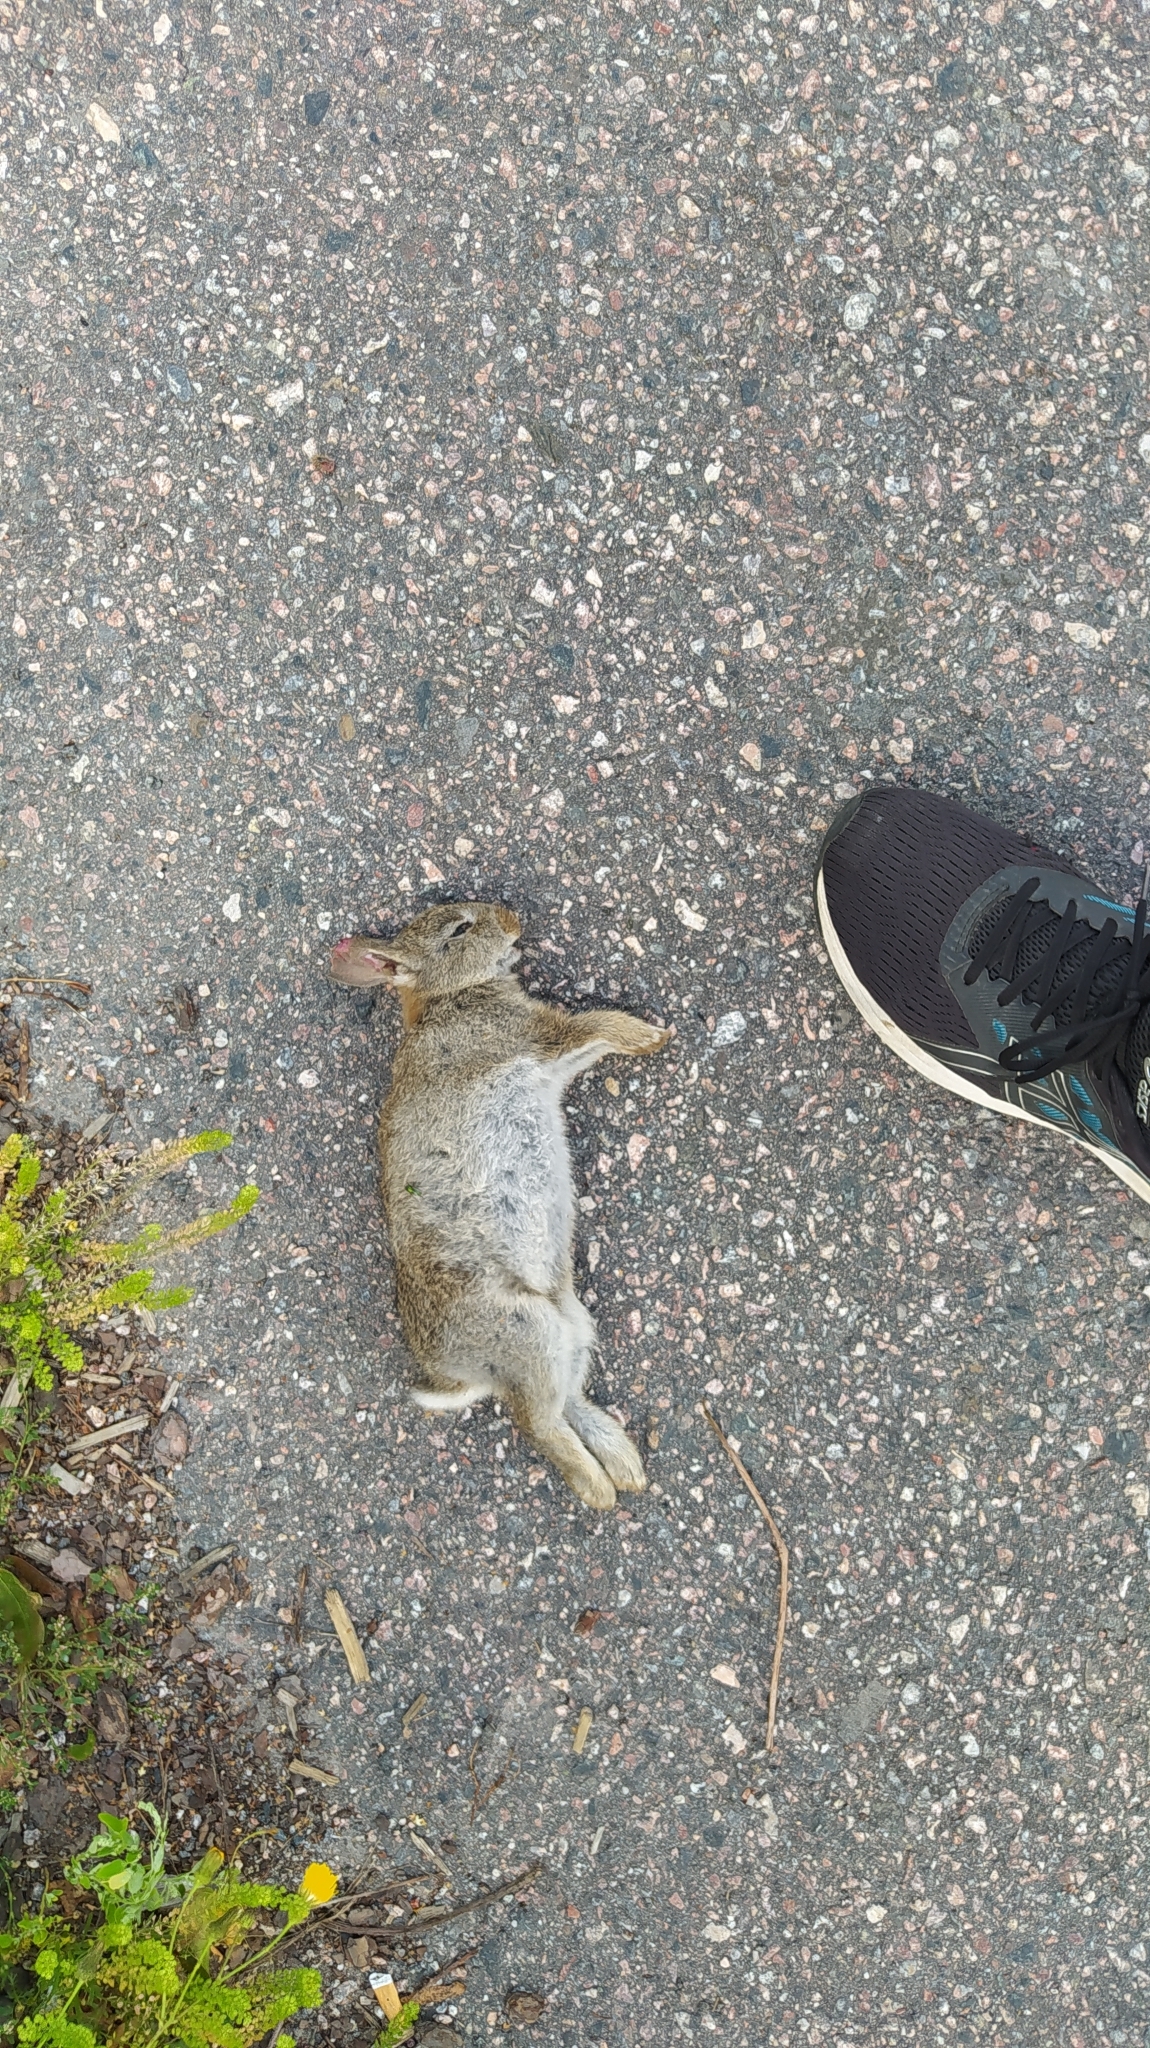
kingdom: Animalia
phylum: Chordata
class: Mammalia
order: Lagomorpha
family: Leporidae
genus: Oryctolagus
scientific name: Oryctolagus cuniculus
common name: European rabbit
